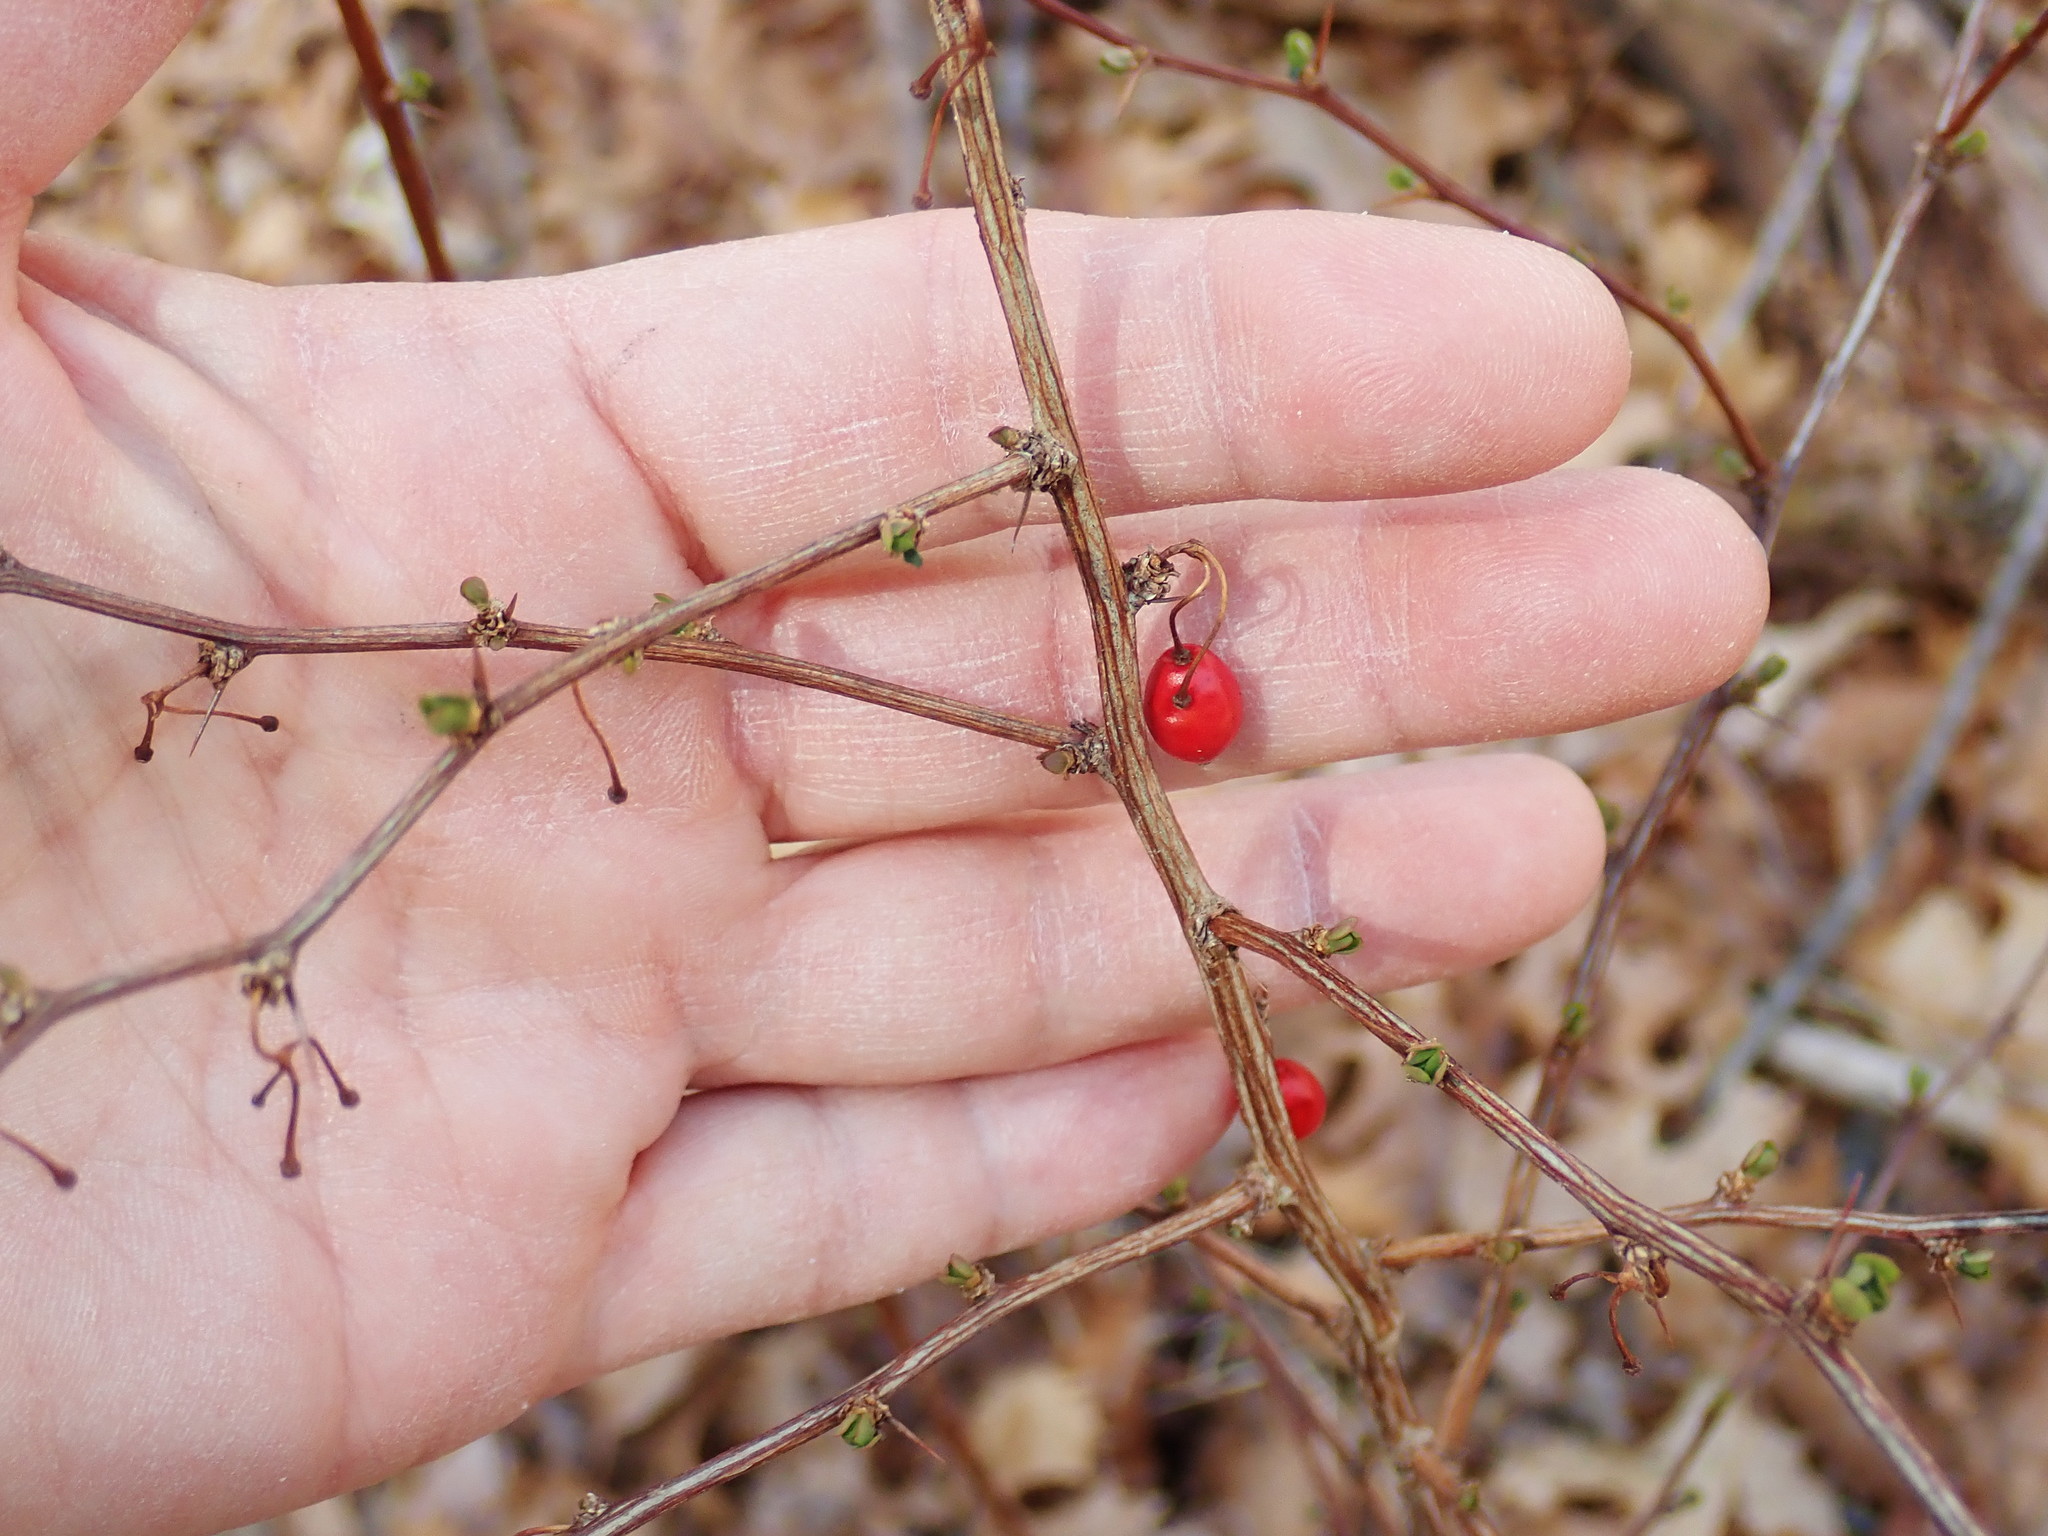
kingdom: Plantae
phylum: Tracheophyta
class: Magnoliopsida
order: Ranunculales
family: Berberidaceae
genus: Berberis
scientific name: Berberis thunbergii
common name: Japanese barberry
